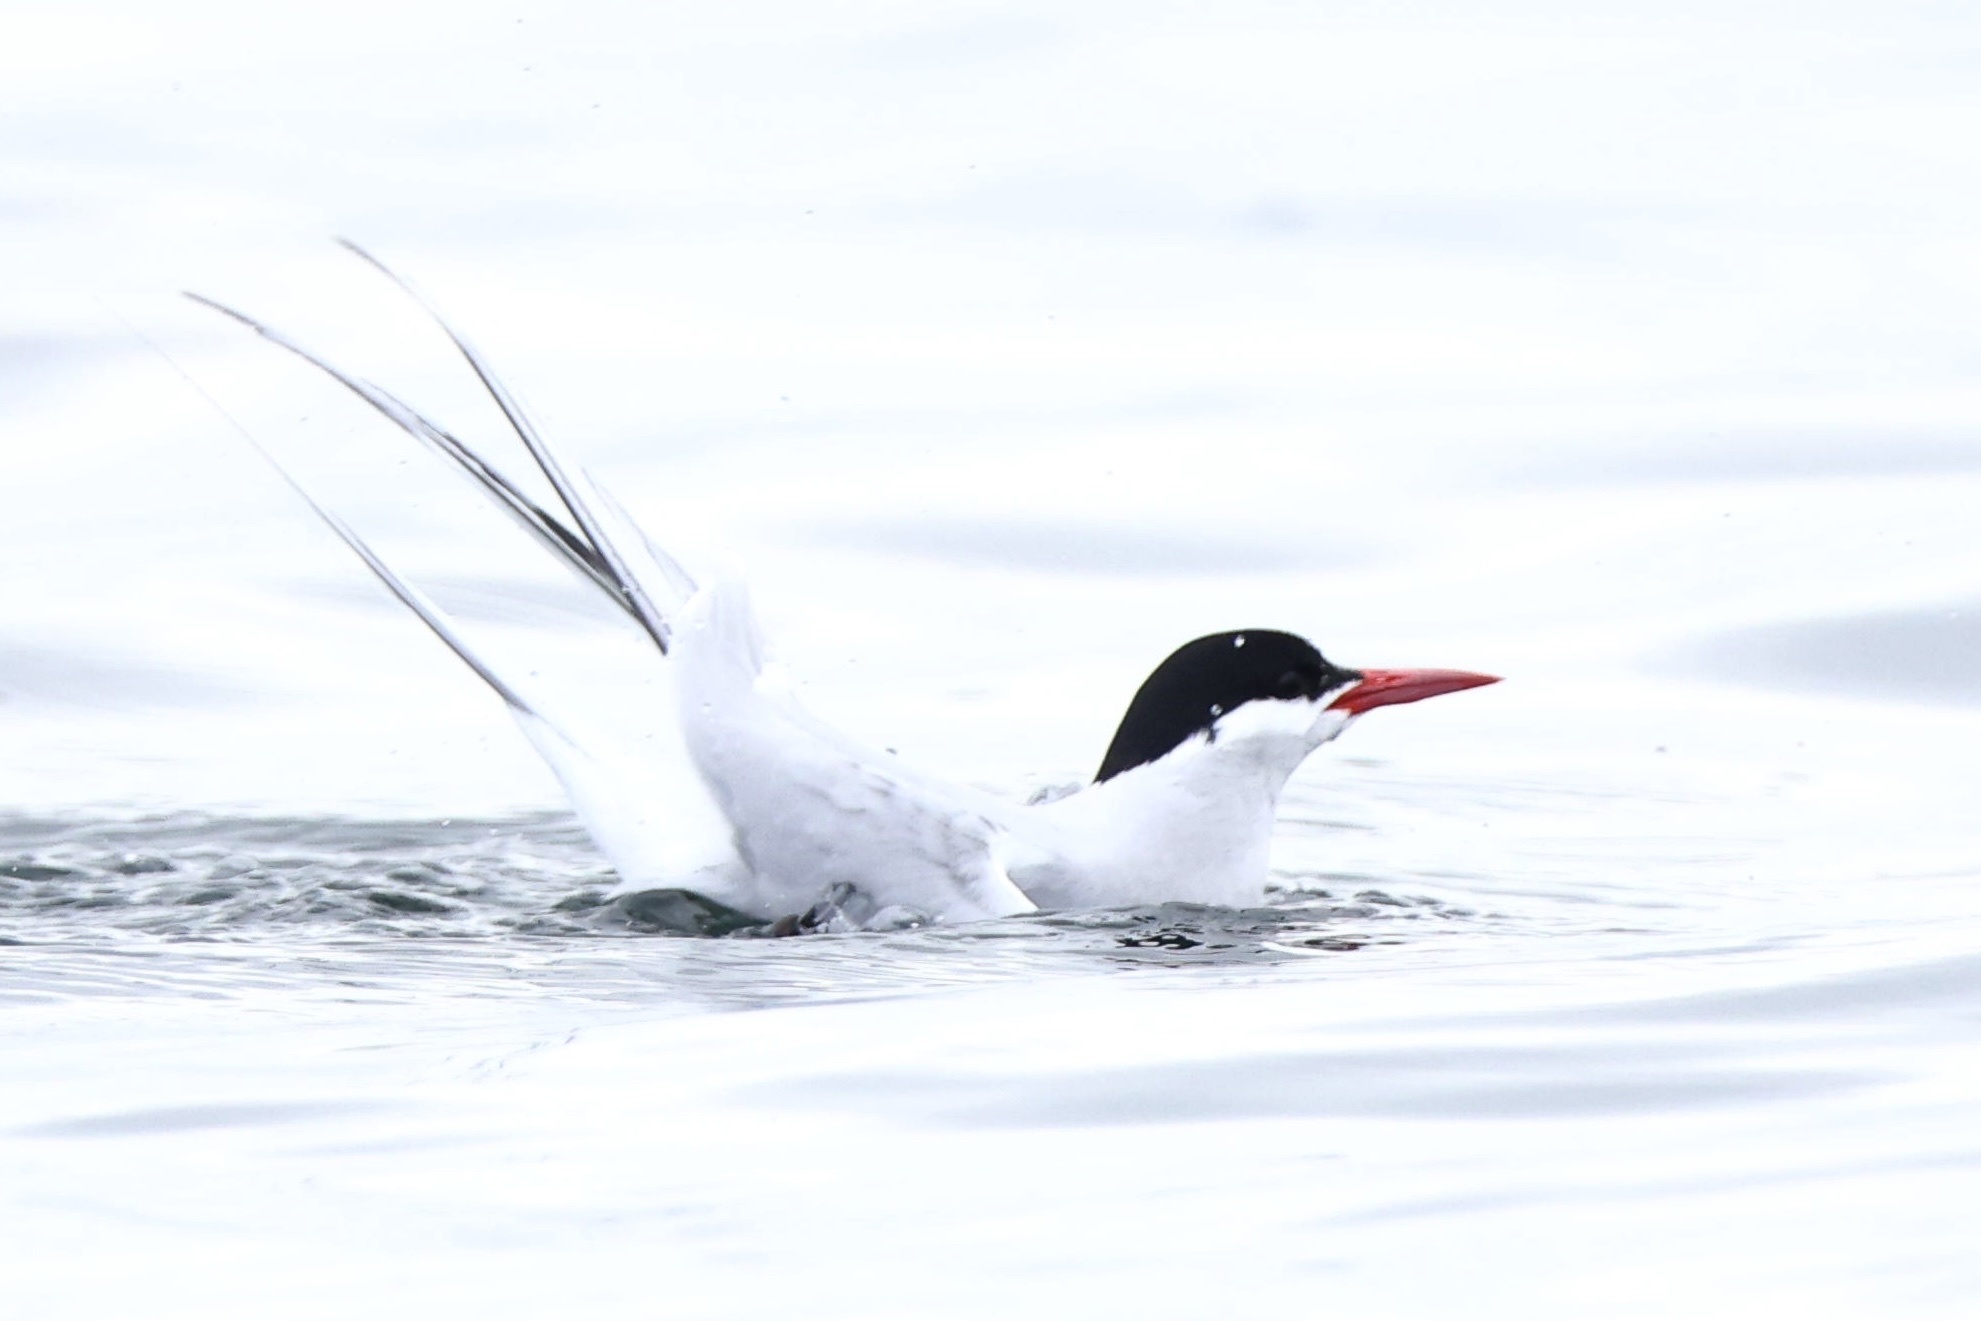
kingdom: Animalia
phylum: Chordata
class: Aves
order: Charadriiformes
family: Laridae
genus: Sterna
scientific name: Sterna paradisaea
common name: Arctic tern
